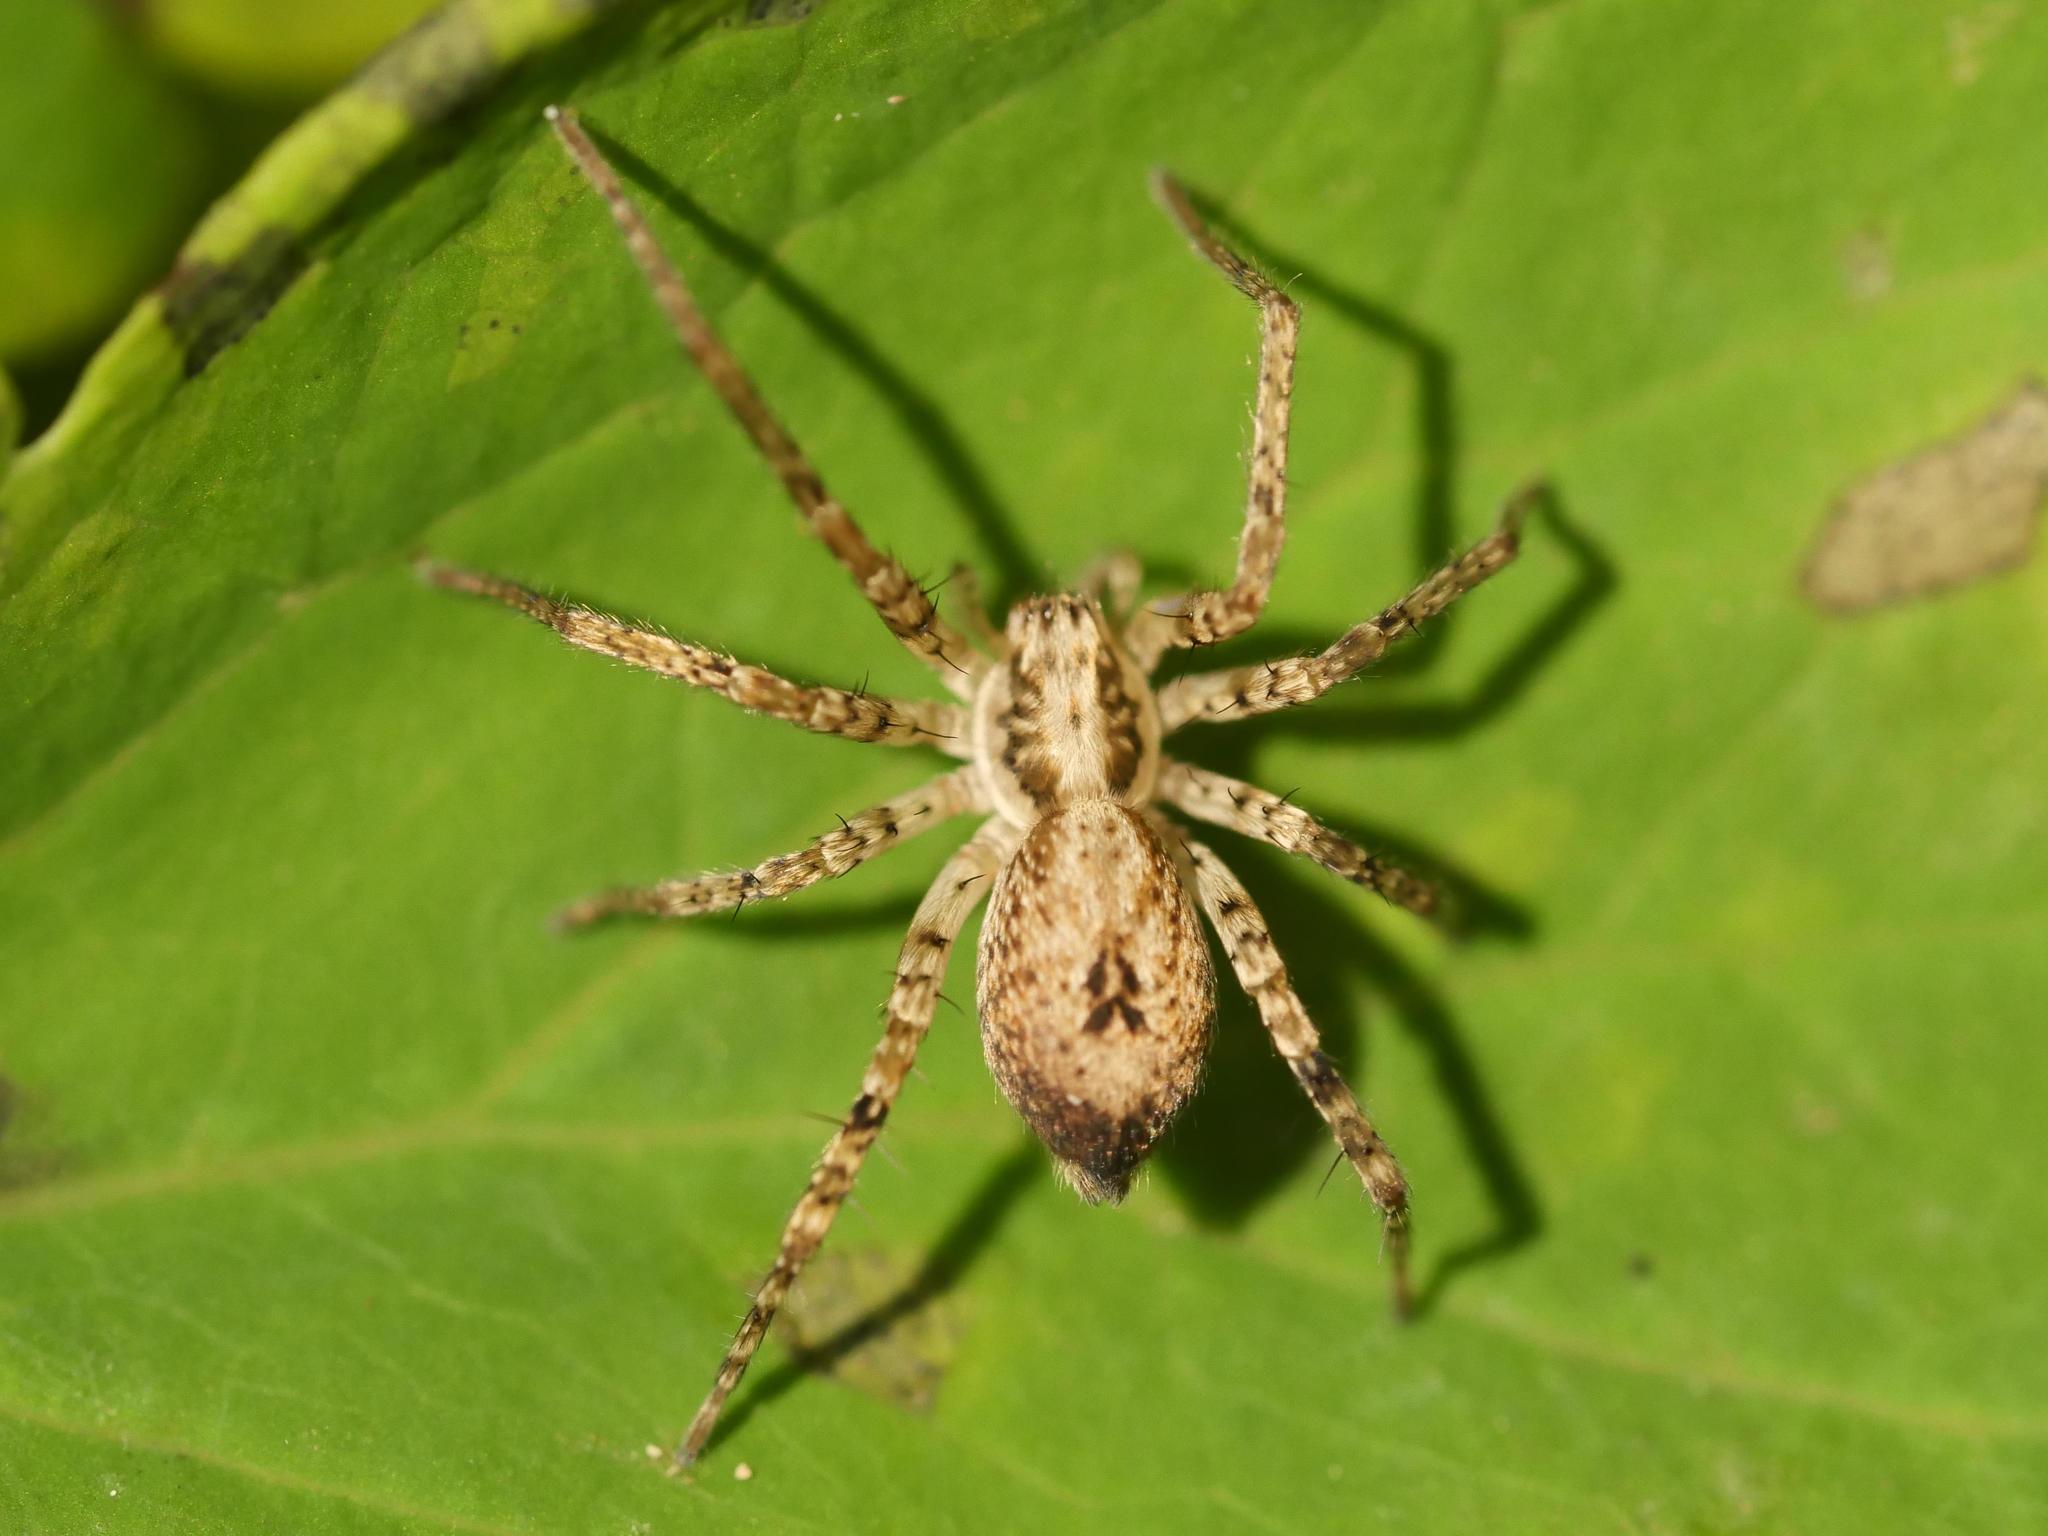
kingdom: Animalia
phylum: Arthropoda
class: Arachnida
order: Araneae
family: Anyphaenidae
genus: Anyphaena
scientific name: Anyphaena accentuata
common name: Buzzing spider
